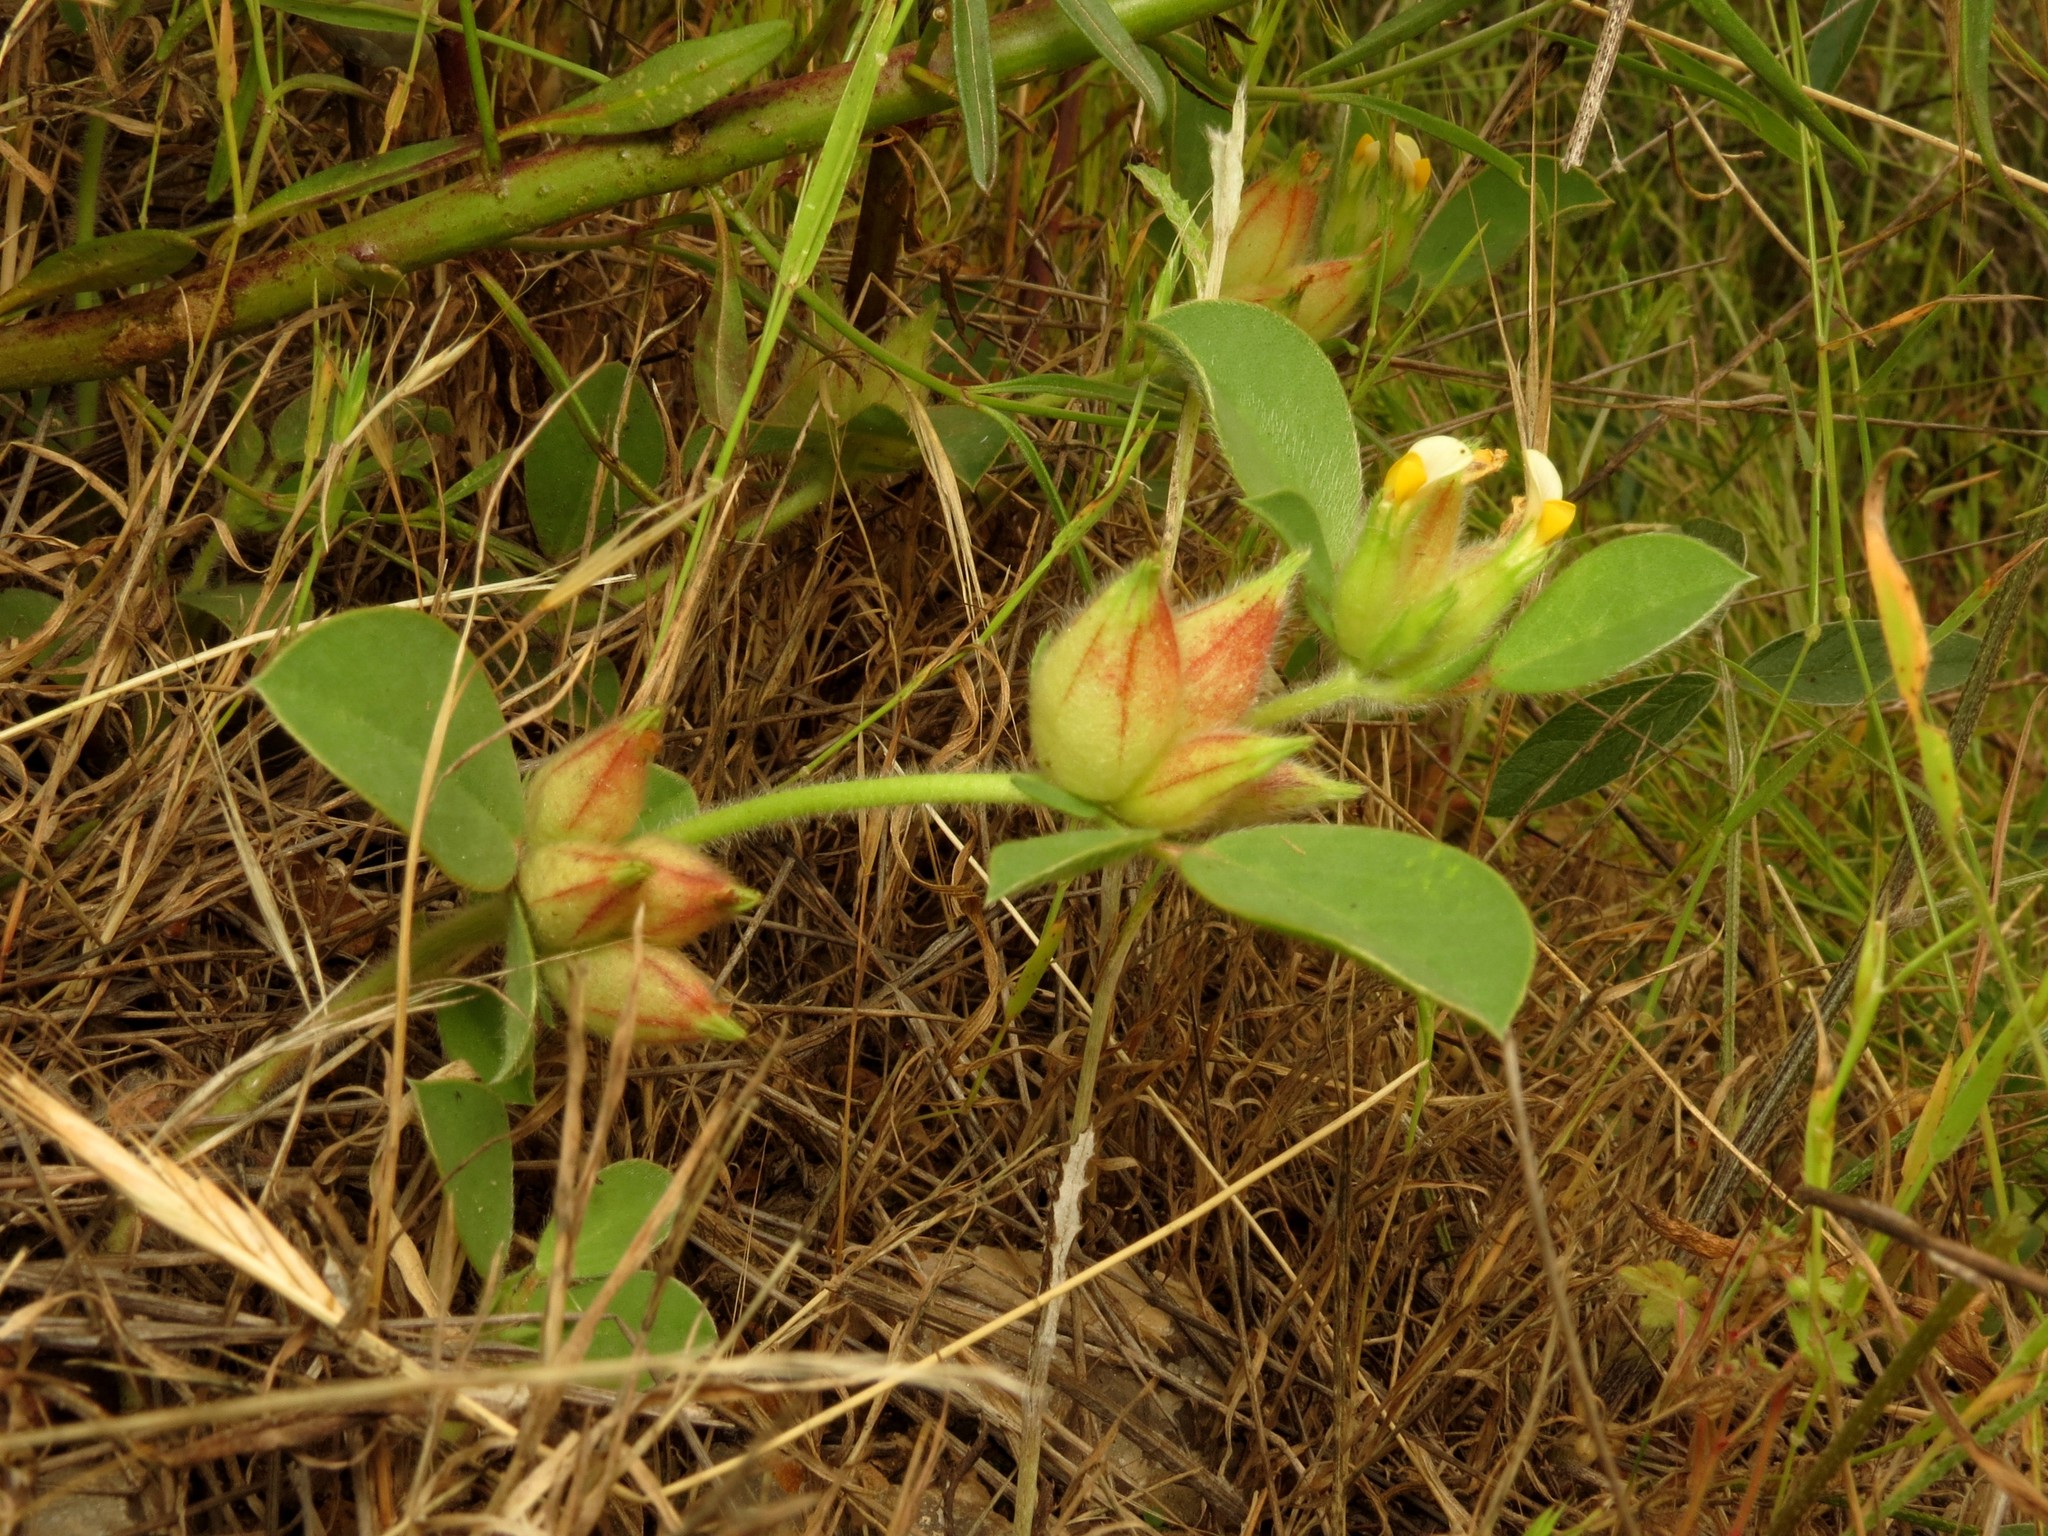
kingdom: Plantae
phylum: Tracheophyta
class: Magnoliopsida
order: Fabales
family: Fabaceae
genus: Tripodion
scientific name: Tripodion tetraphyllum
